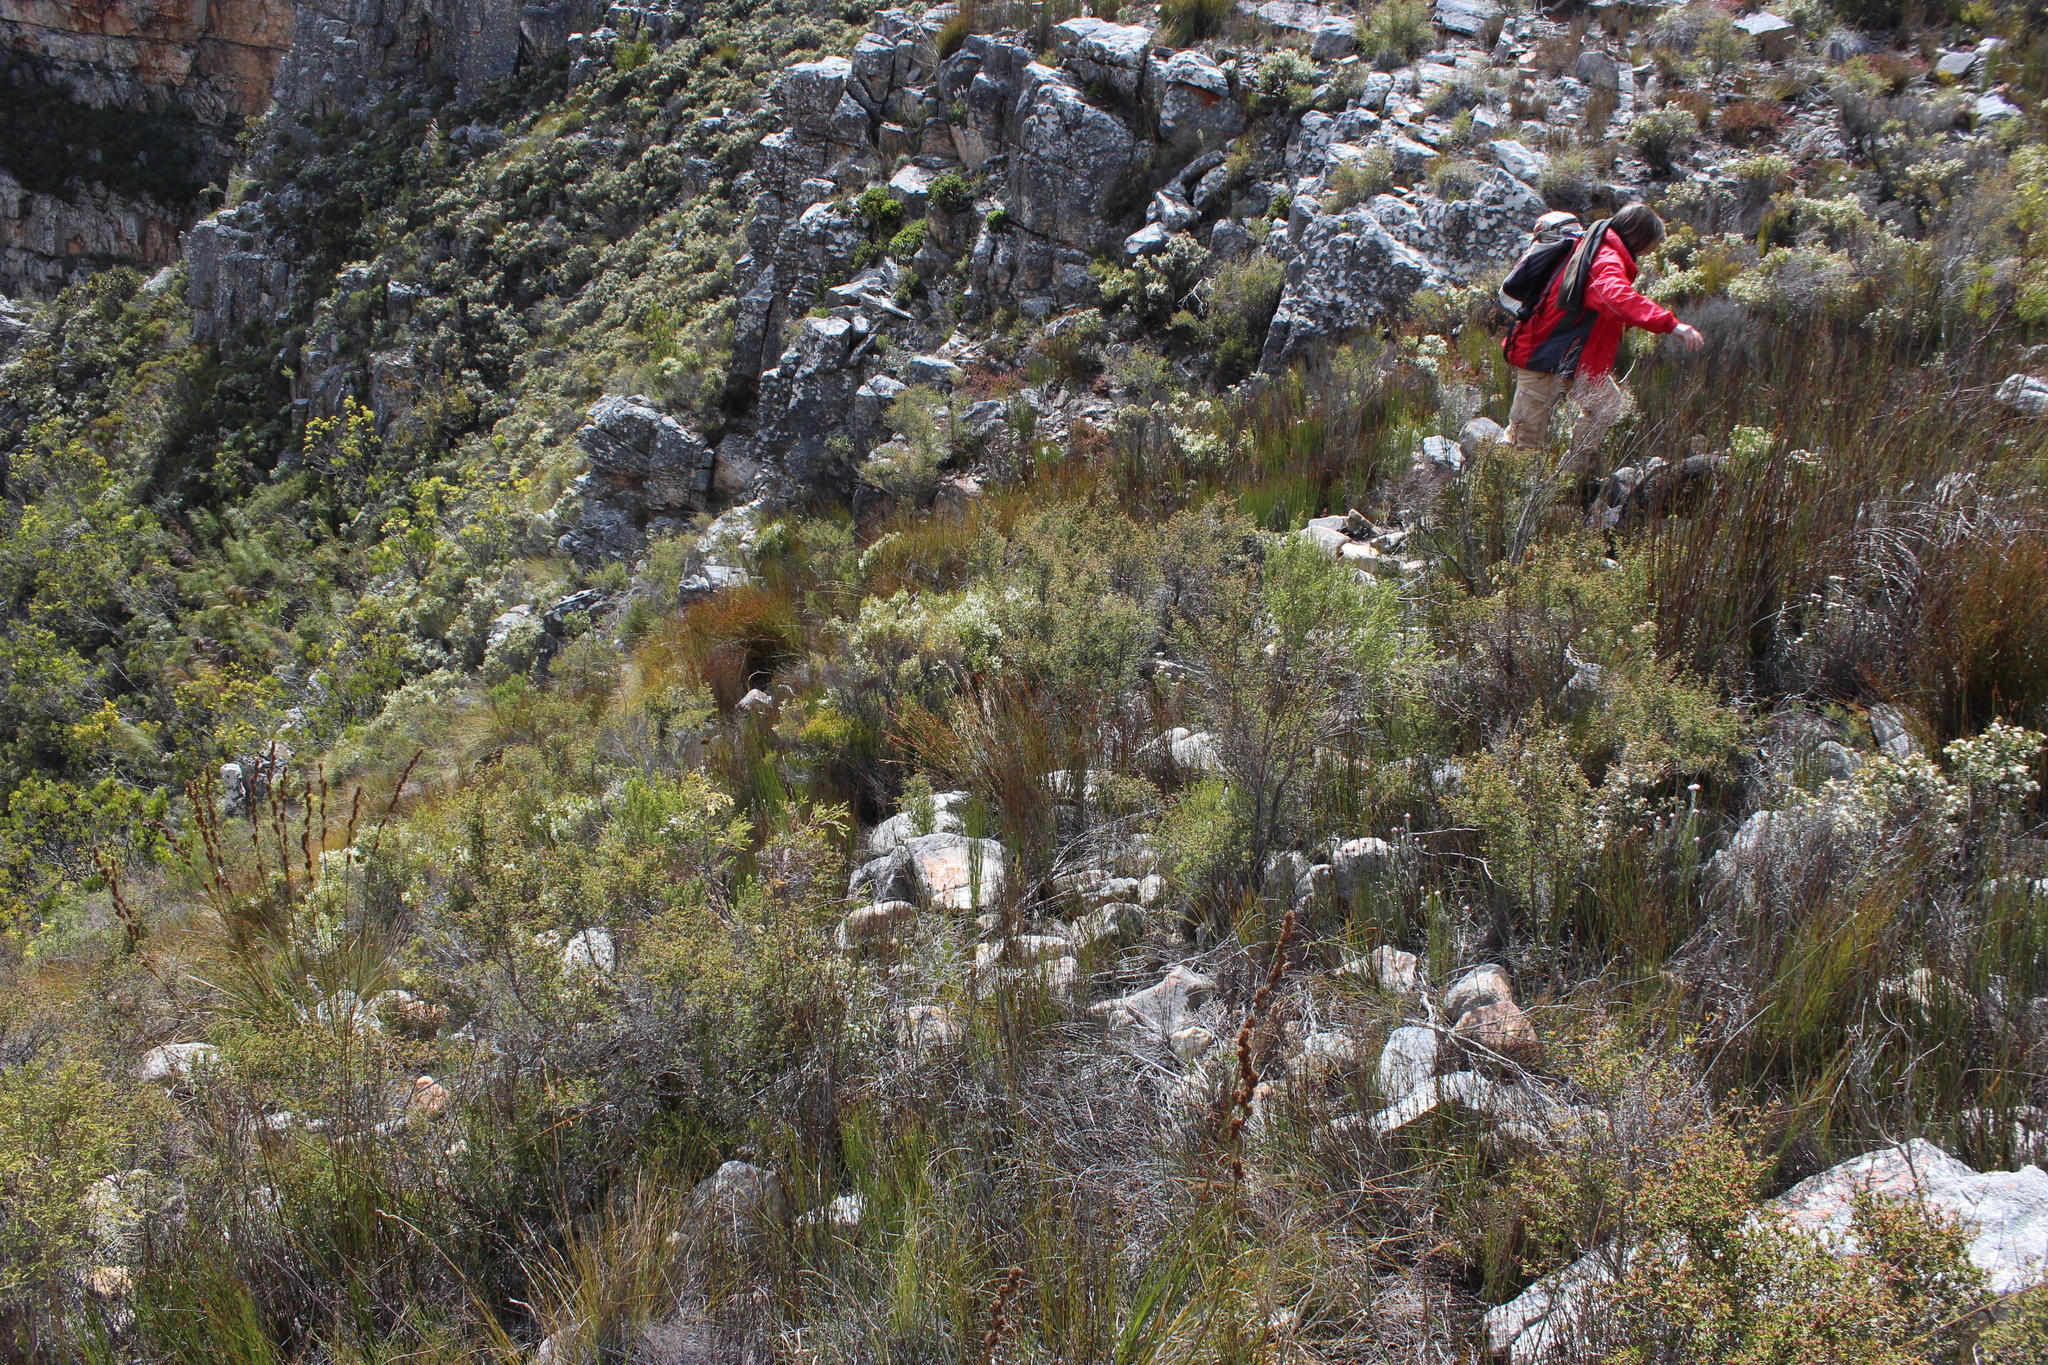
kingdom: Plantae
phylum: Tracheophyta
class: Magnoliopsida
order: Rosales
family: Rosaceae
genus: Cliffortia
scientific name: Cliffortia ruscifolia
